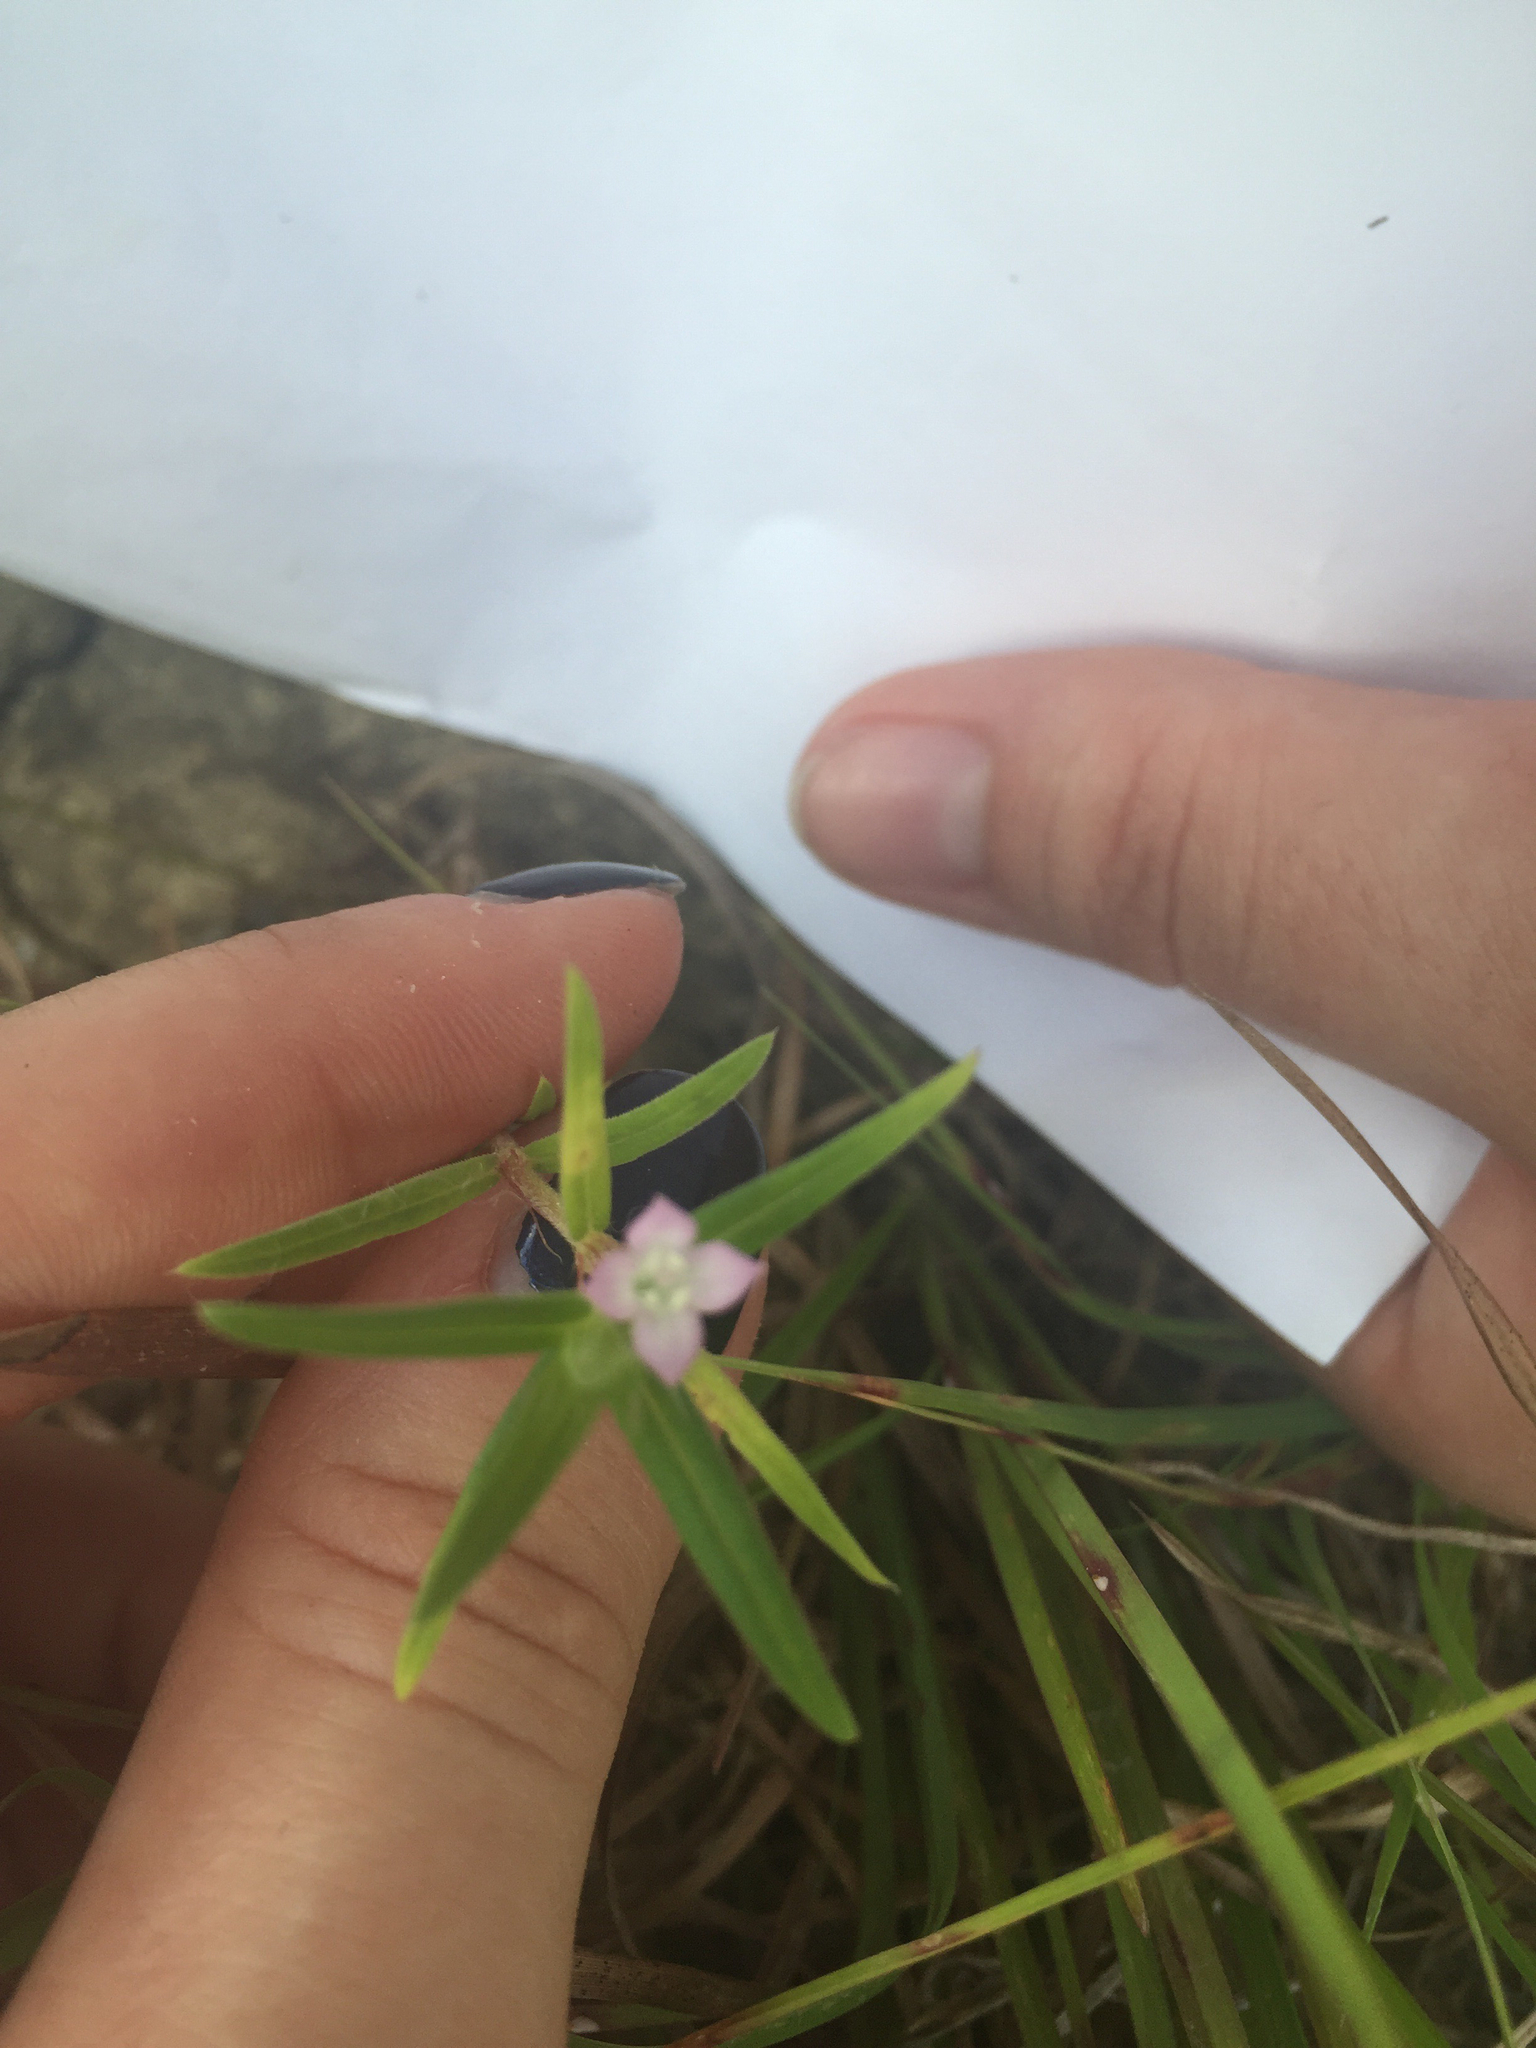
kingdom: Plantae
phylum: Tracheophyta
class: Magnoliopsida
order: Gentianales
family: Rubiaceae
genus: Hexasepalum
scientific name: Hexasepalum teres
